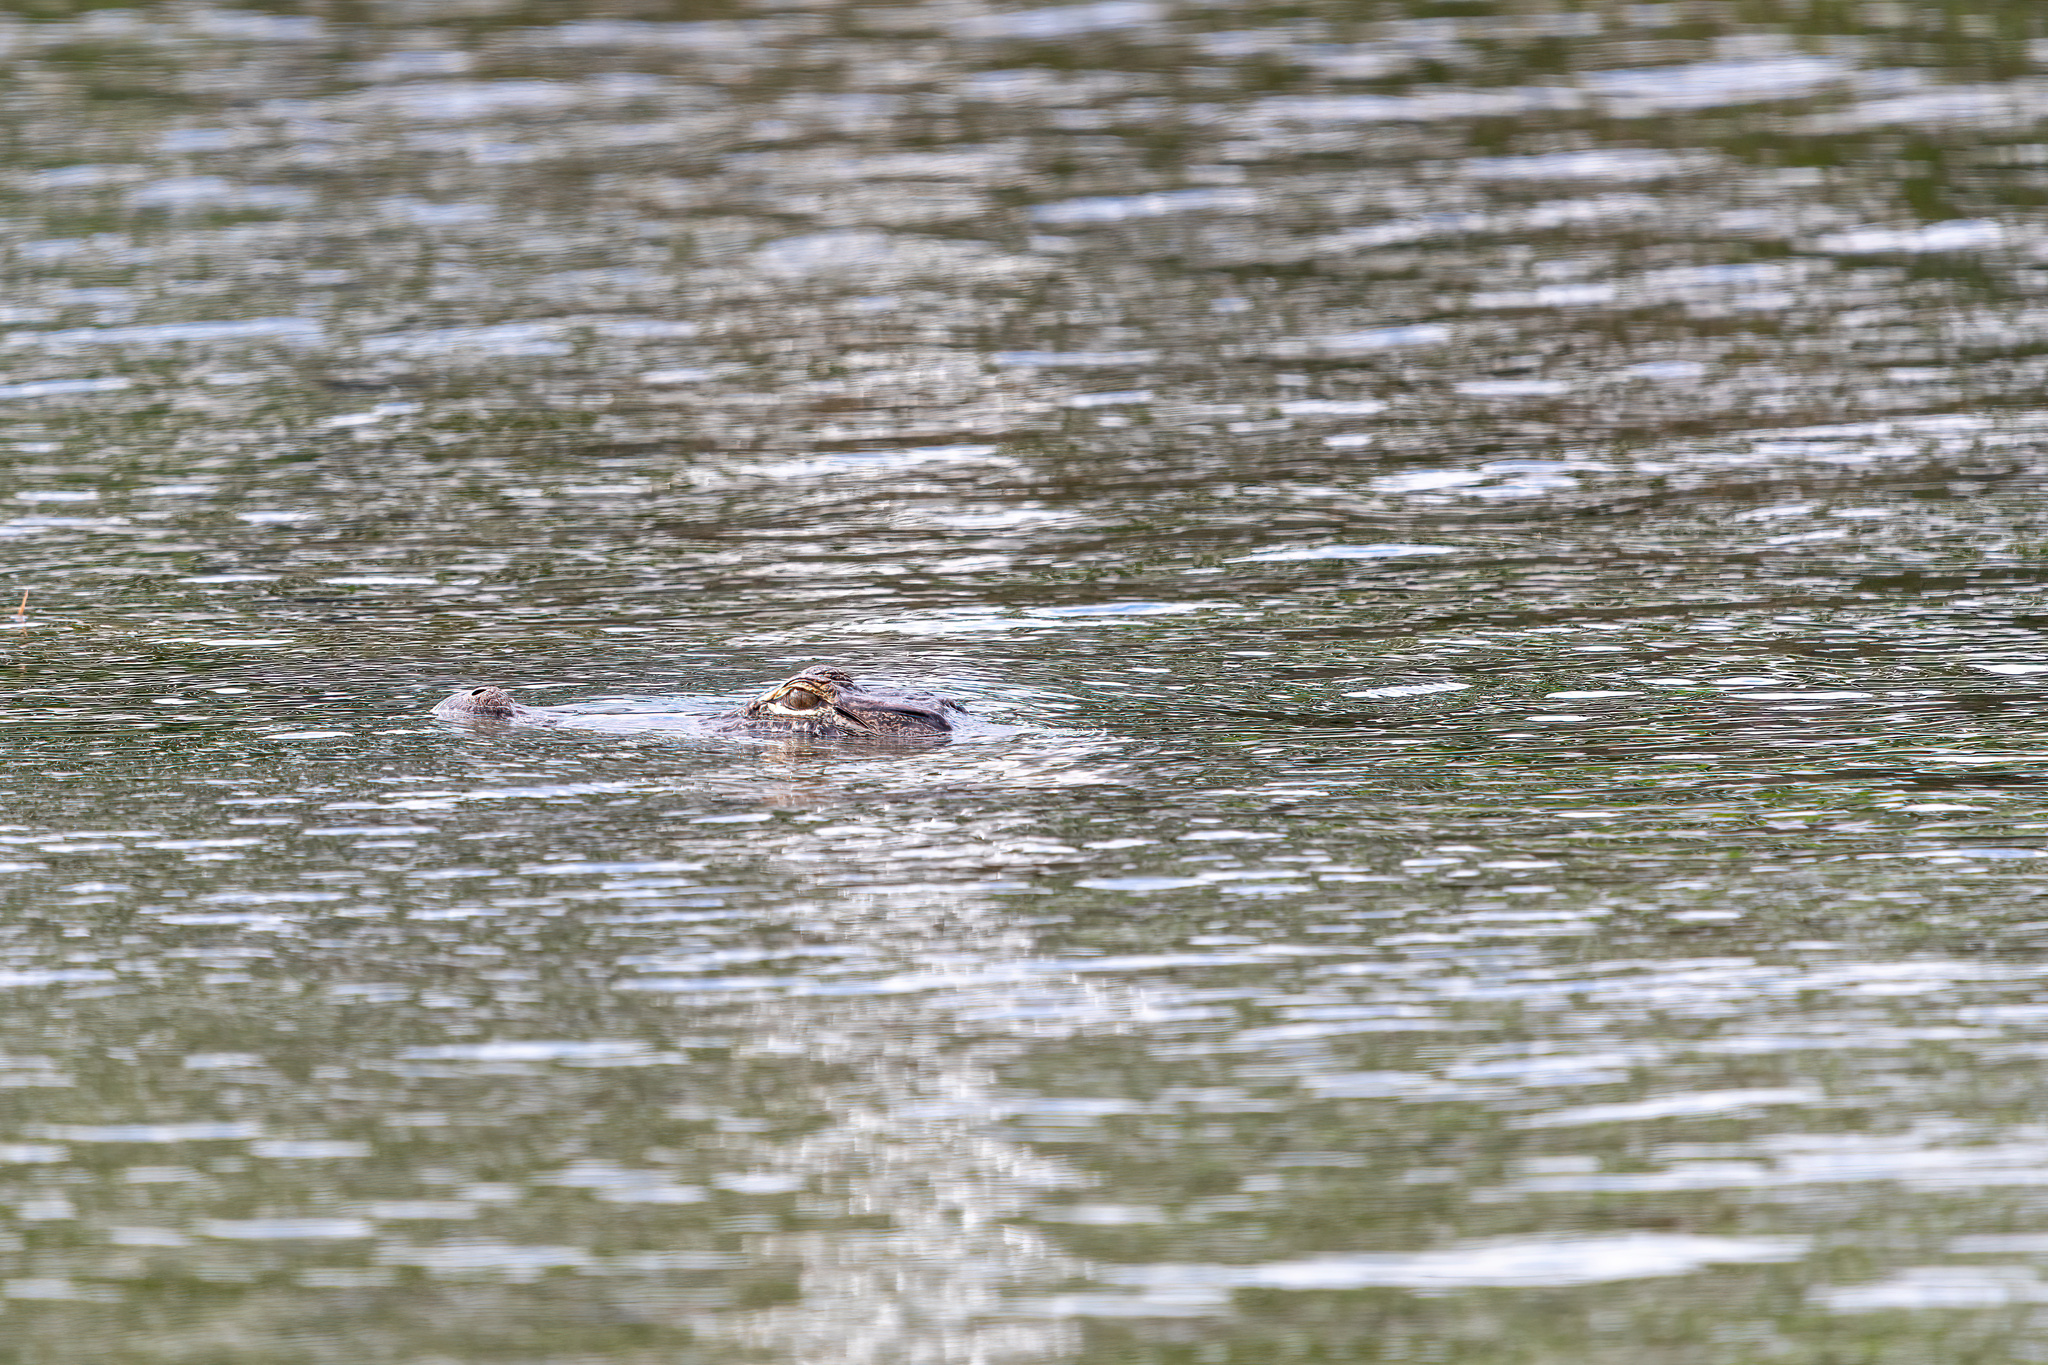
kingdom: Animalia
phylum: Chordata
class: Crocodylia
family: Alligatoridae
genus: Alligator
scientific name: Alligator mississippiensis
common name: American alligator
